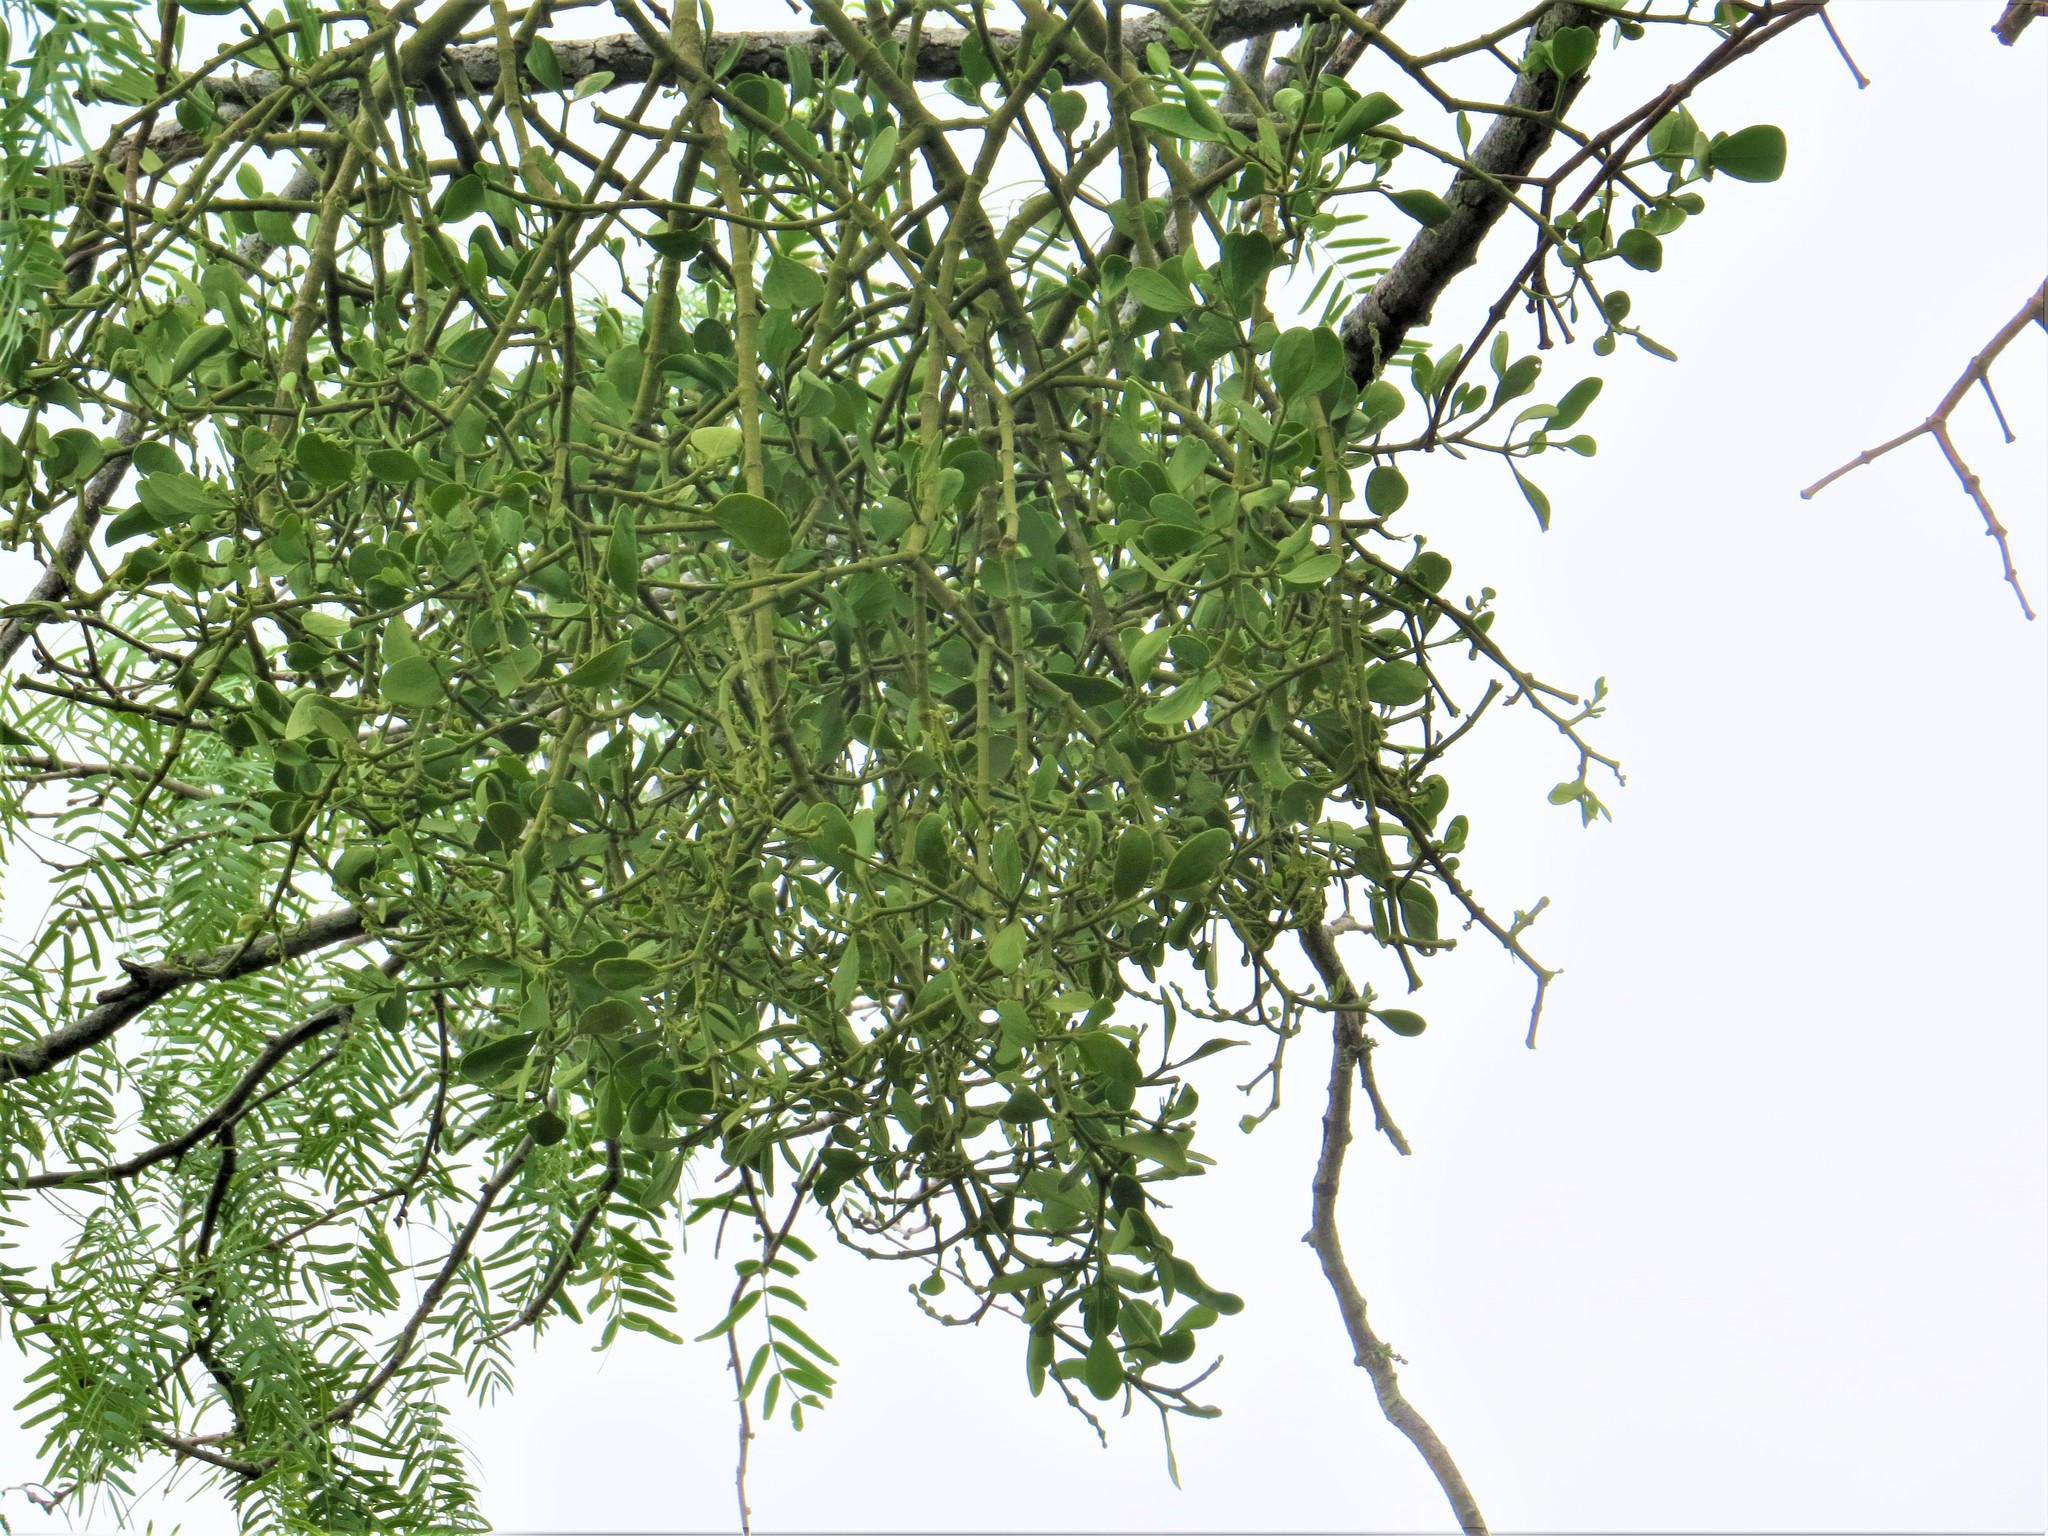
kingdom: Plantae
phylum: Tracheophyta
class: Magnoliopsida
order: Santalales
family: Viscaceae
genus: Phoradendron
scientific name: Phoradendron leucarpum
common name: Pacific mistletoe
